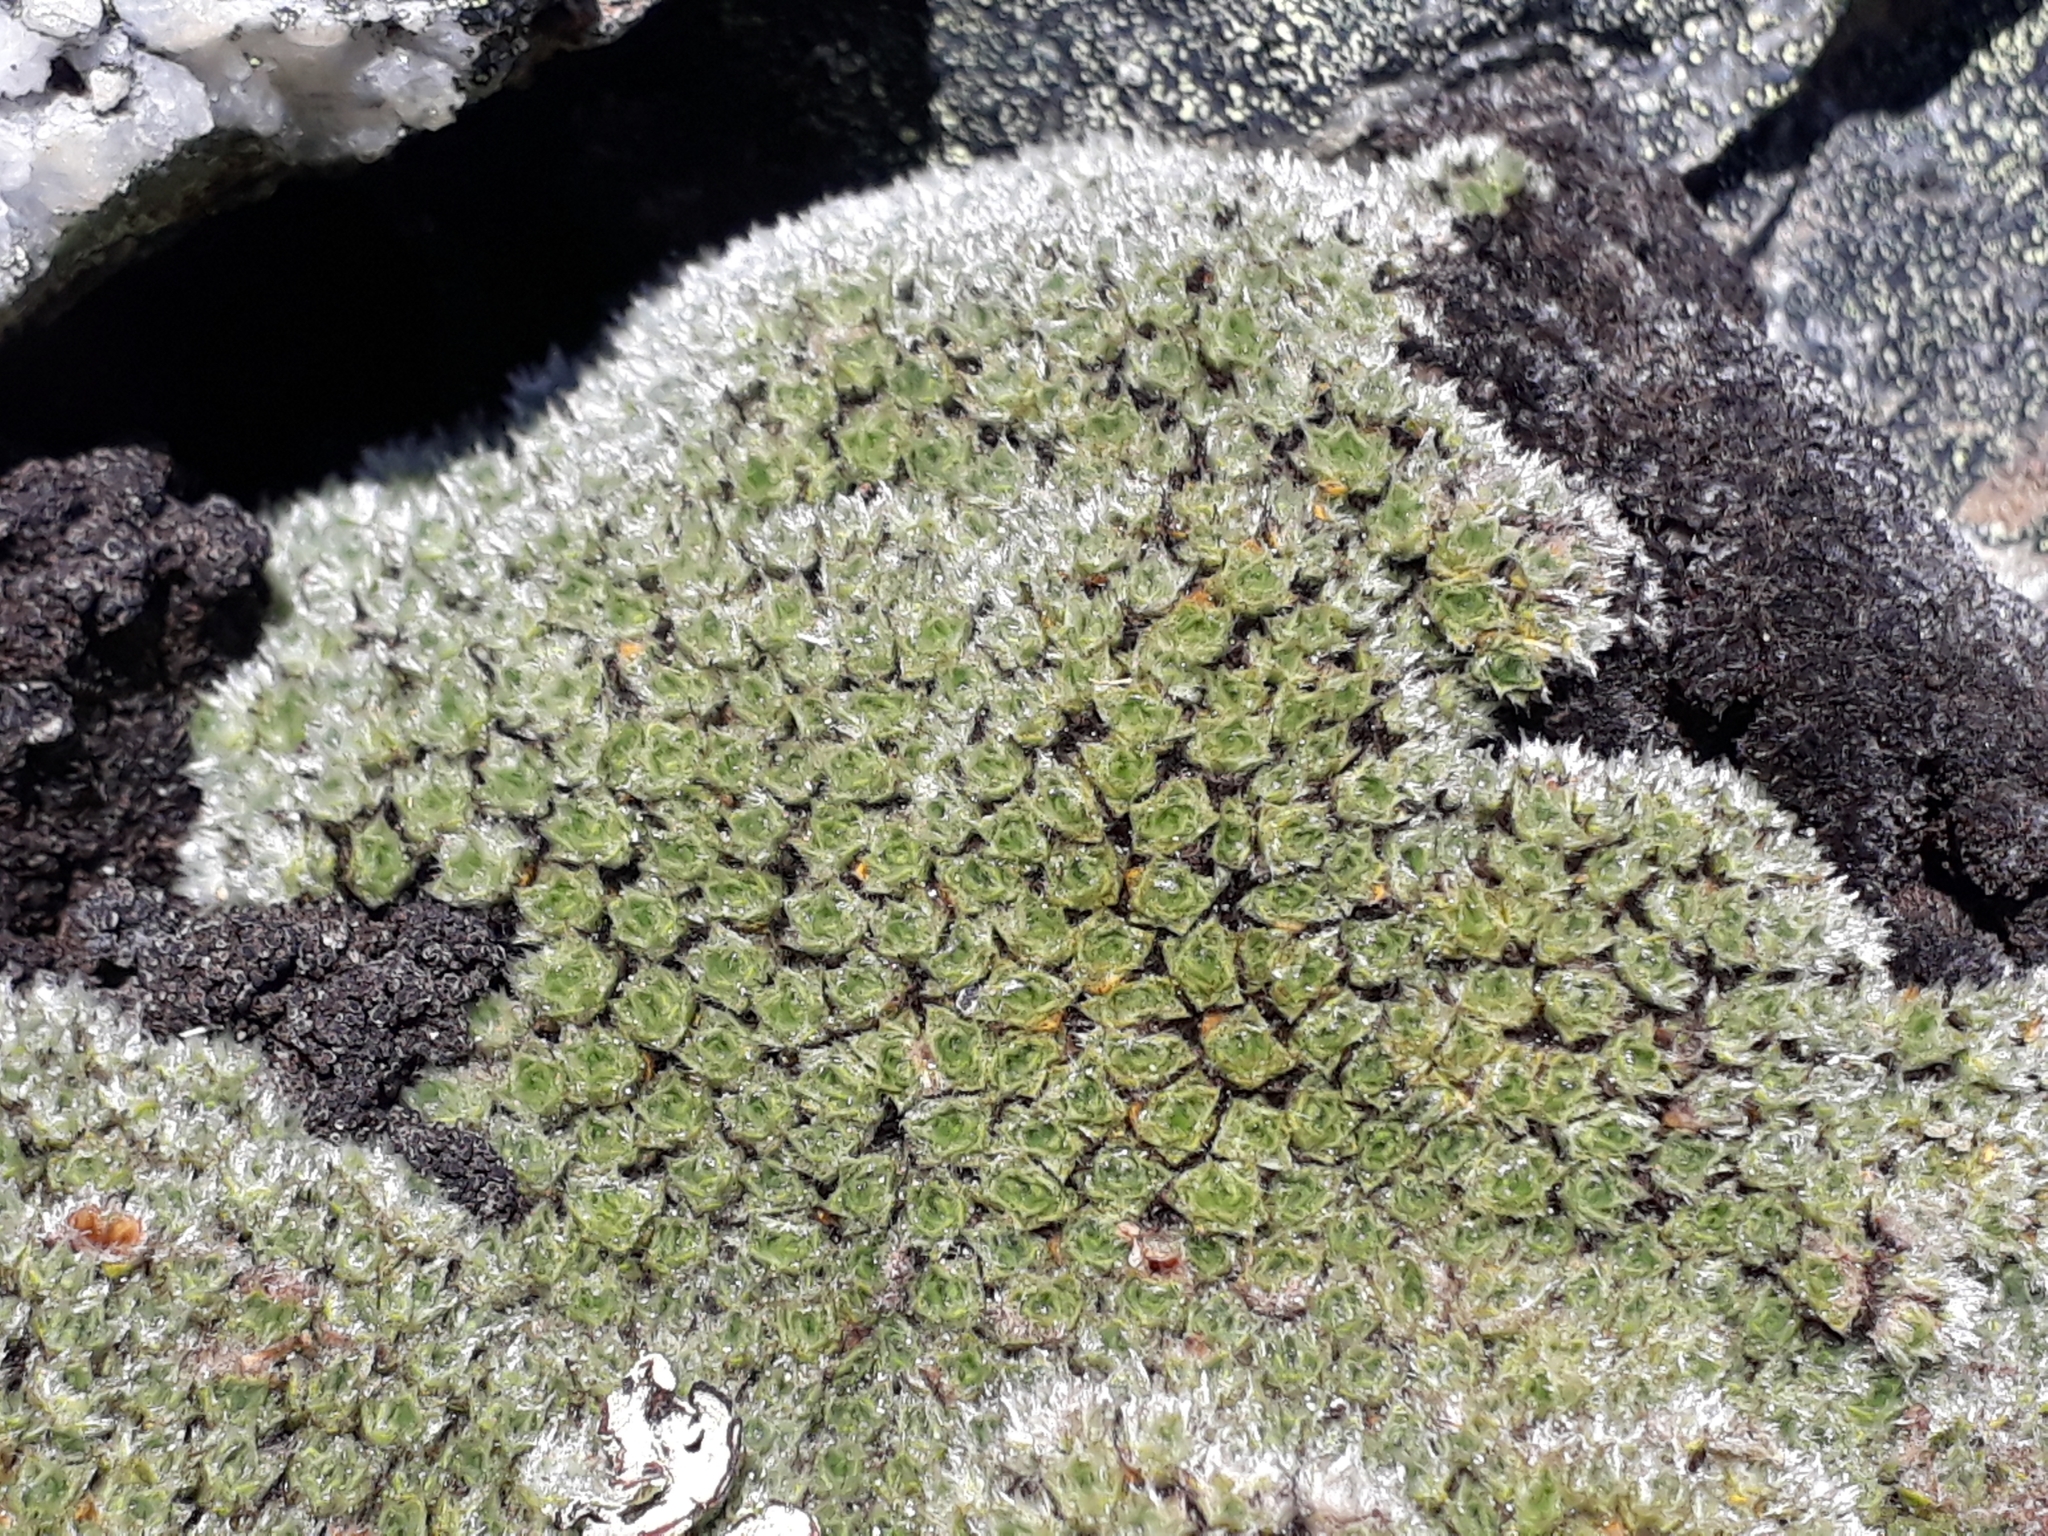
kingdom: Plantae
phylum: Tracheophyta
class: Magnoliopsida
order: Lamiales
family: Plantaginaceae
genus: Veronica
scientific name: Veronica thomsonii
